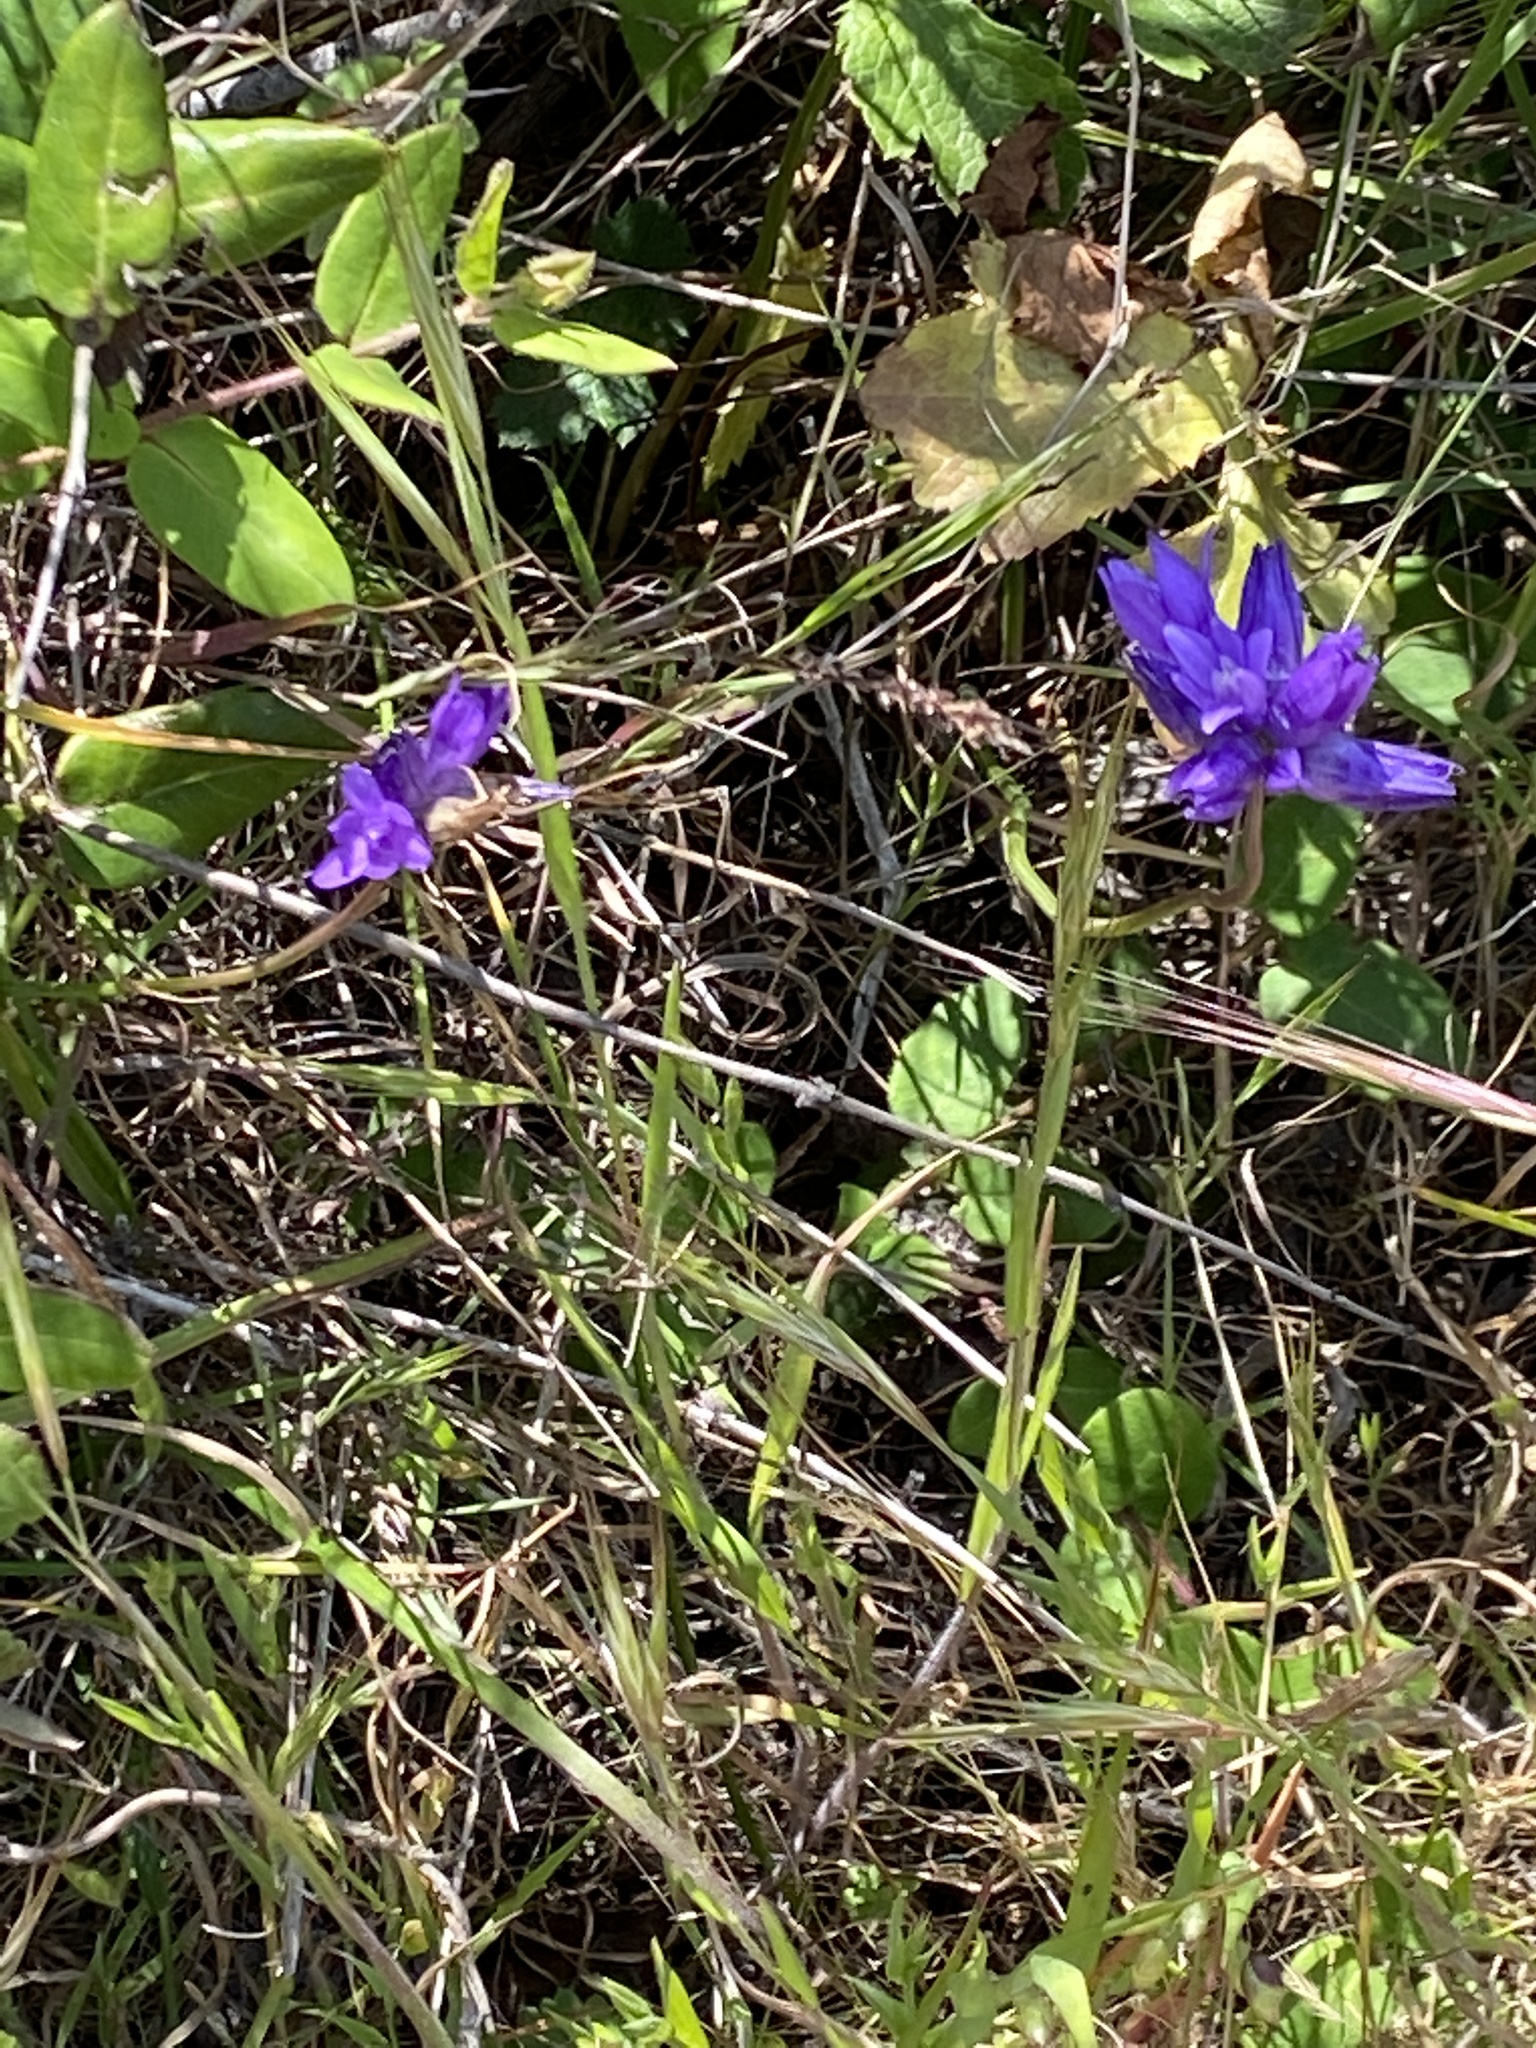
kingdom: Plantae
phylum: Tracheophyta
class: Liliopsida
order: Asparagales
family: Asparagaceae
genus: Dipterostemon
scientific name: Dipterostemon capitatus
